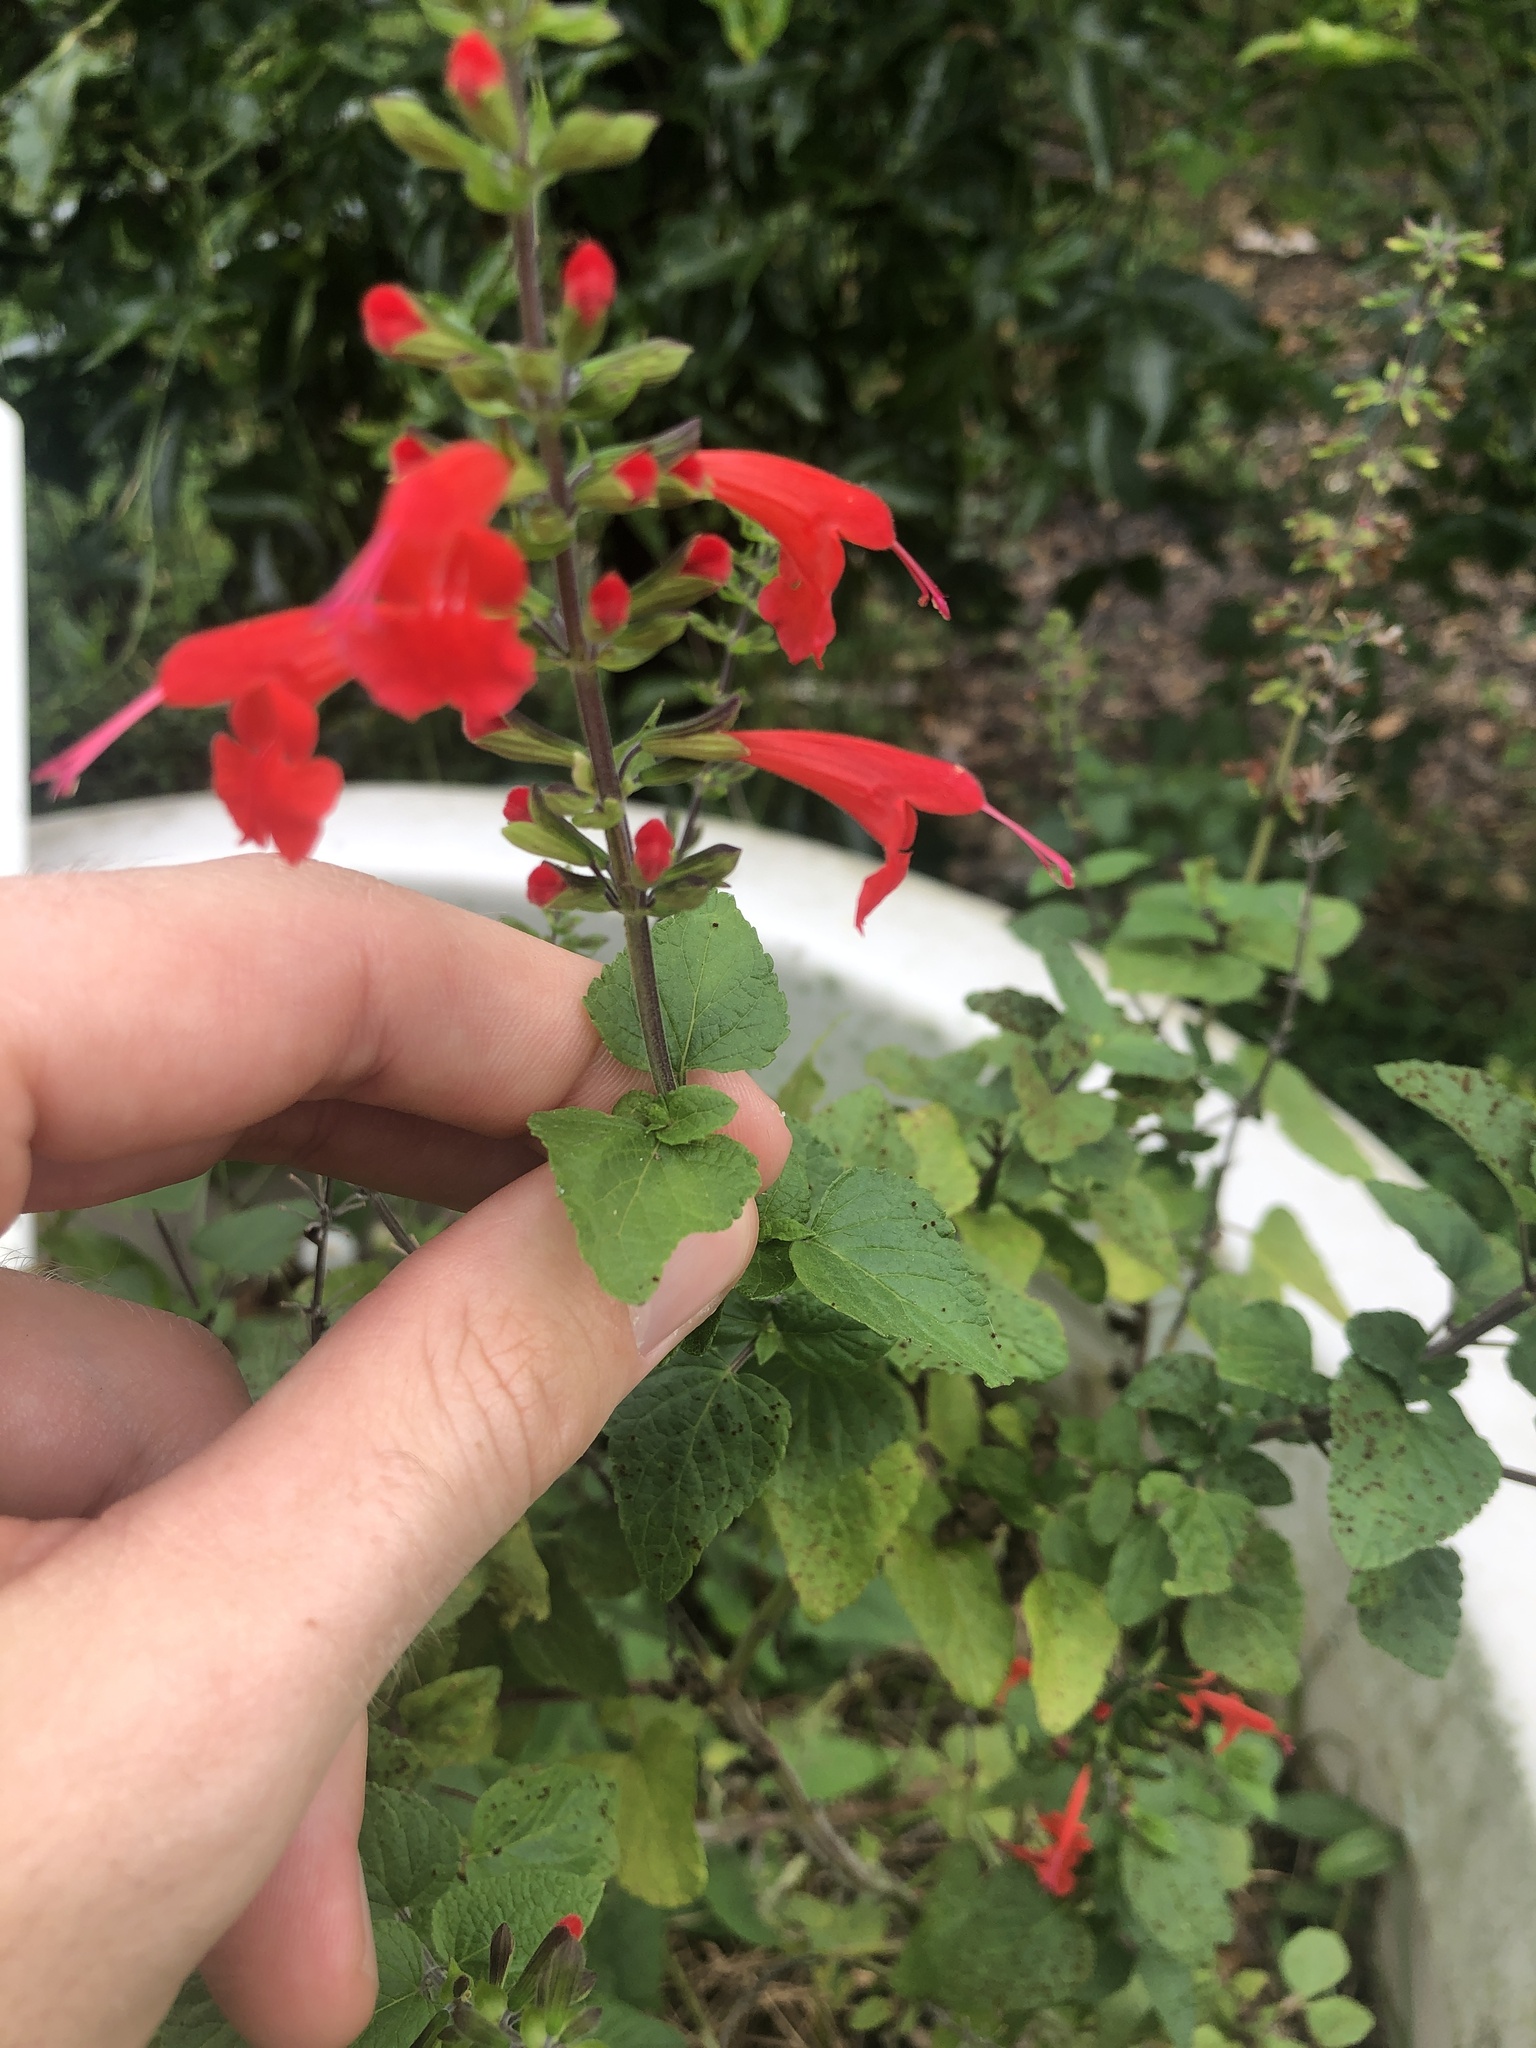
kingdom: Plantae
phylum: Tracheophyta
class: Magnoliopsida
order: Lamiales
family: Lamiaceae
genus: Salvia
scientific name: Salvia coccinea
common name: Blood sage
